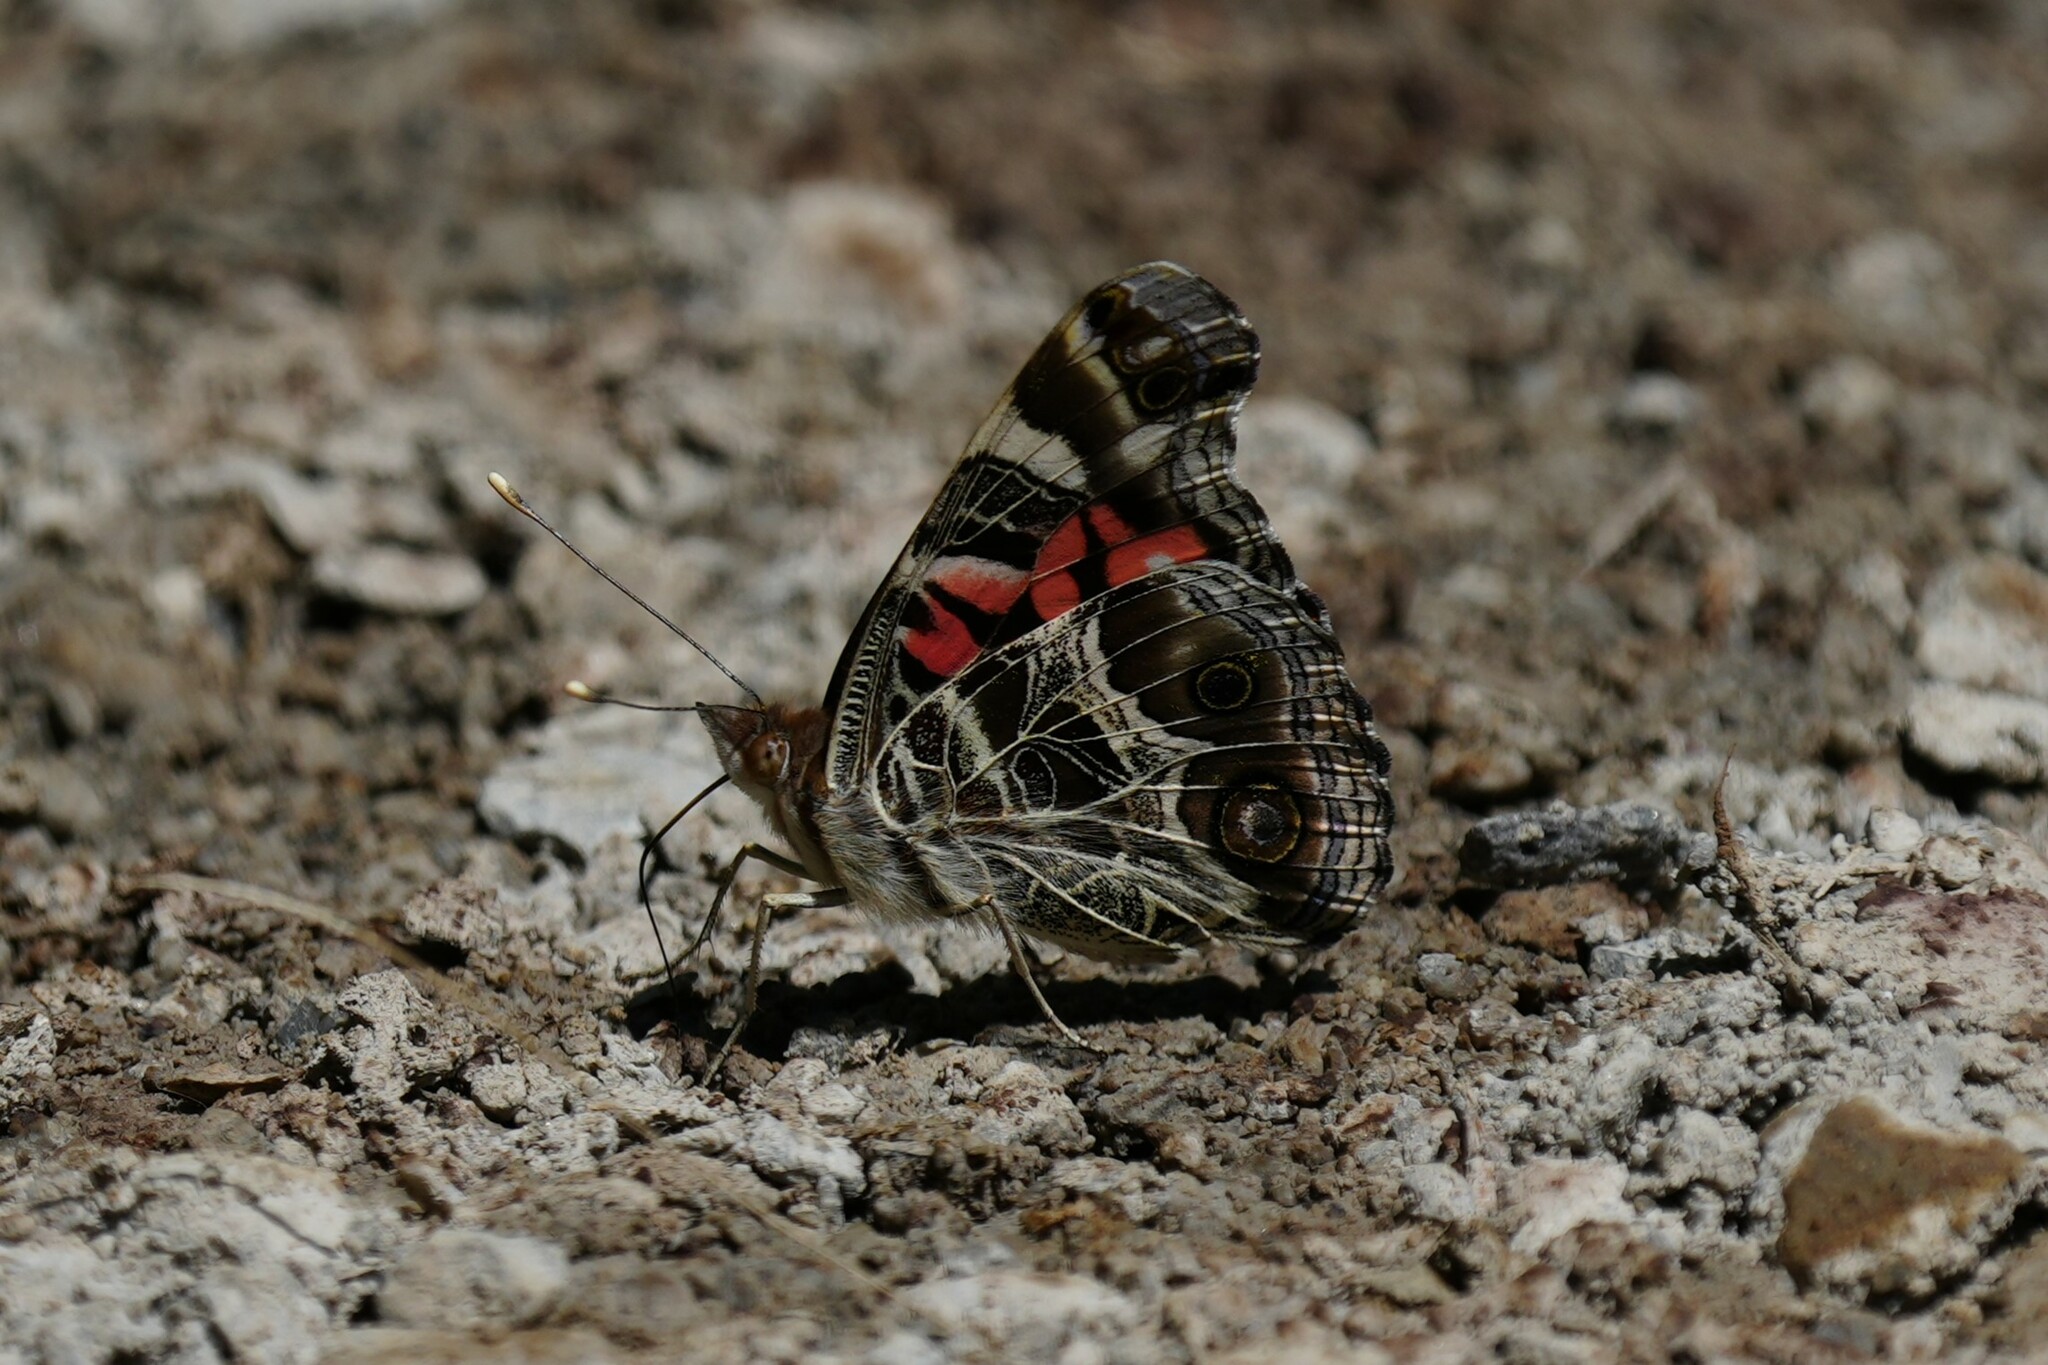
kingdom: Animalia
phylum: Arthropoda
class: Insecta
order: Lepidoptera
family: Nymphalidae
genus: Vanessa
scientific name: Vanessa virginiensis
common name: American lady
